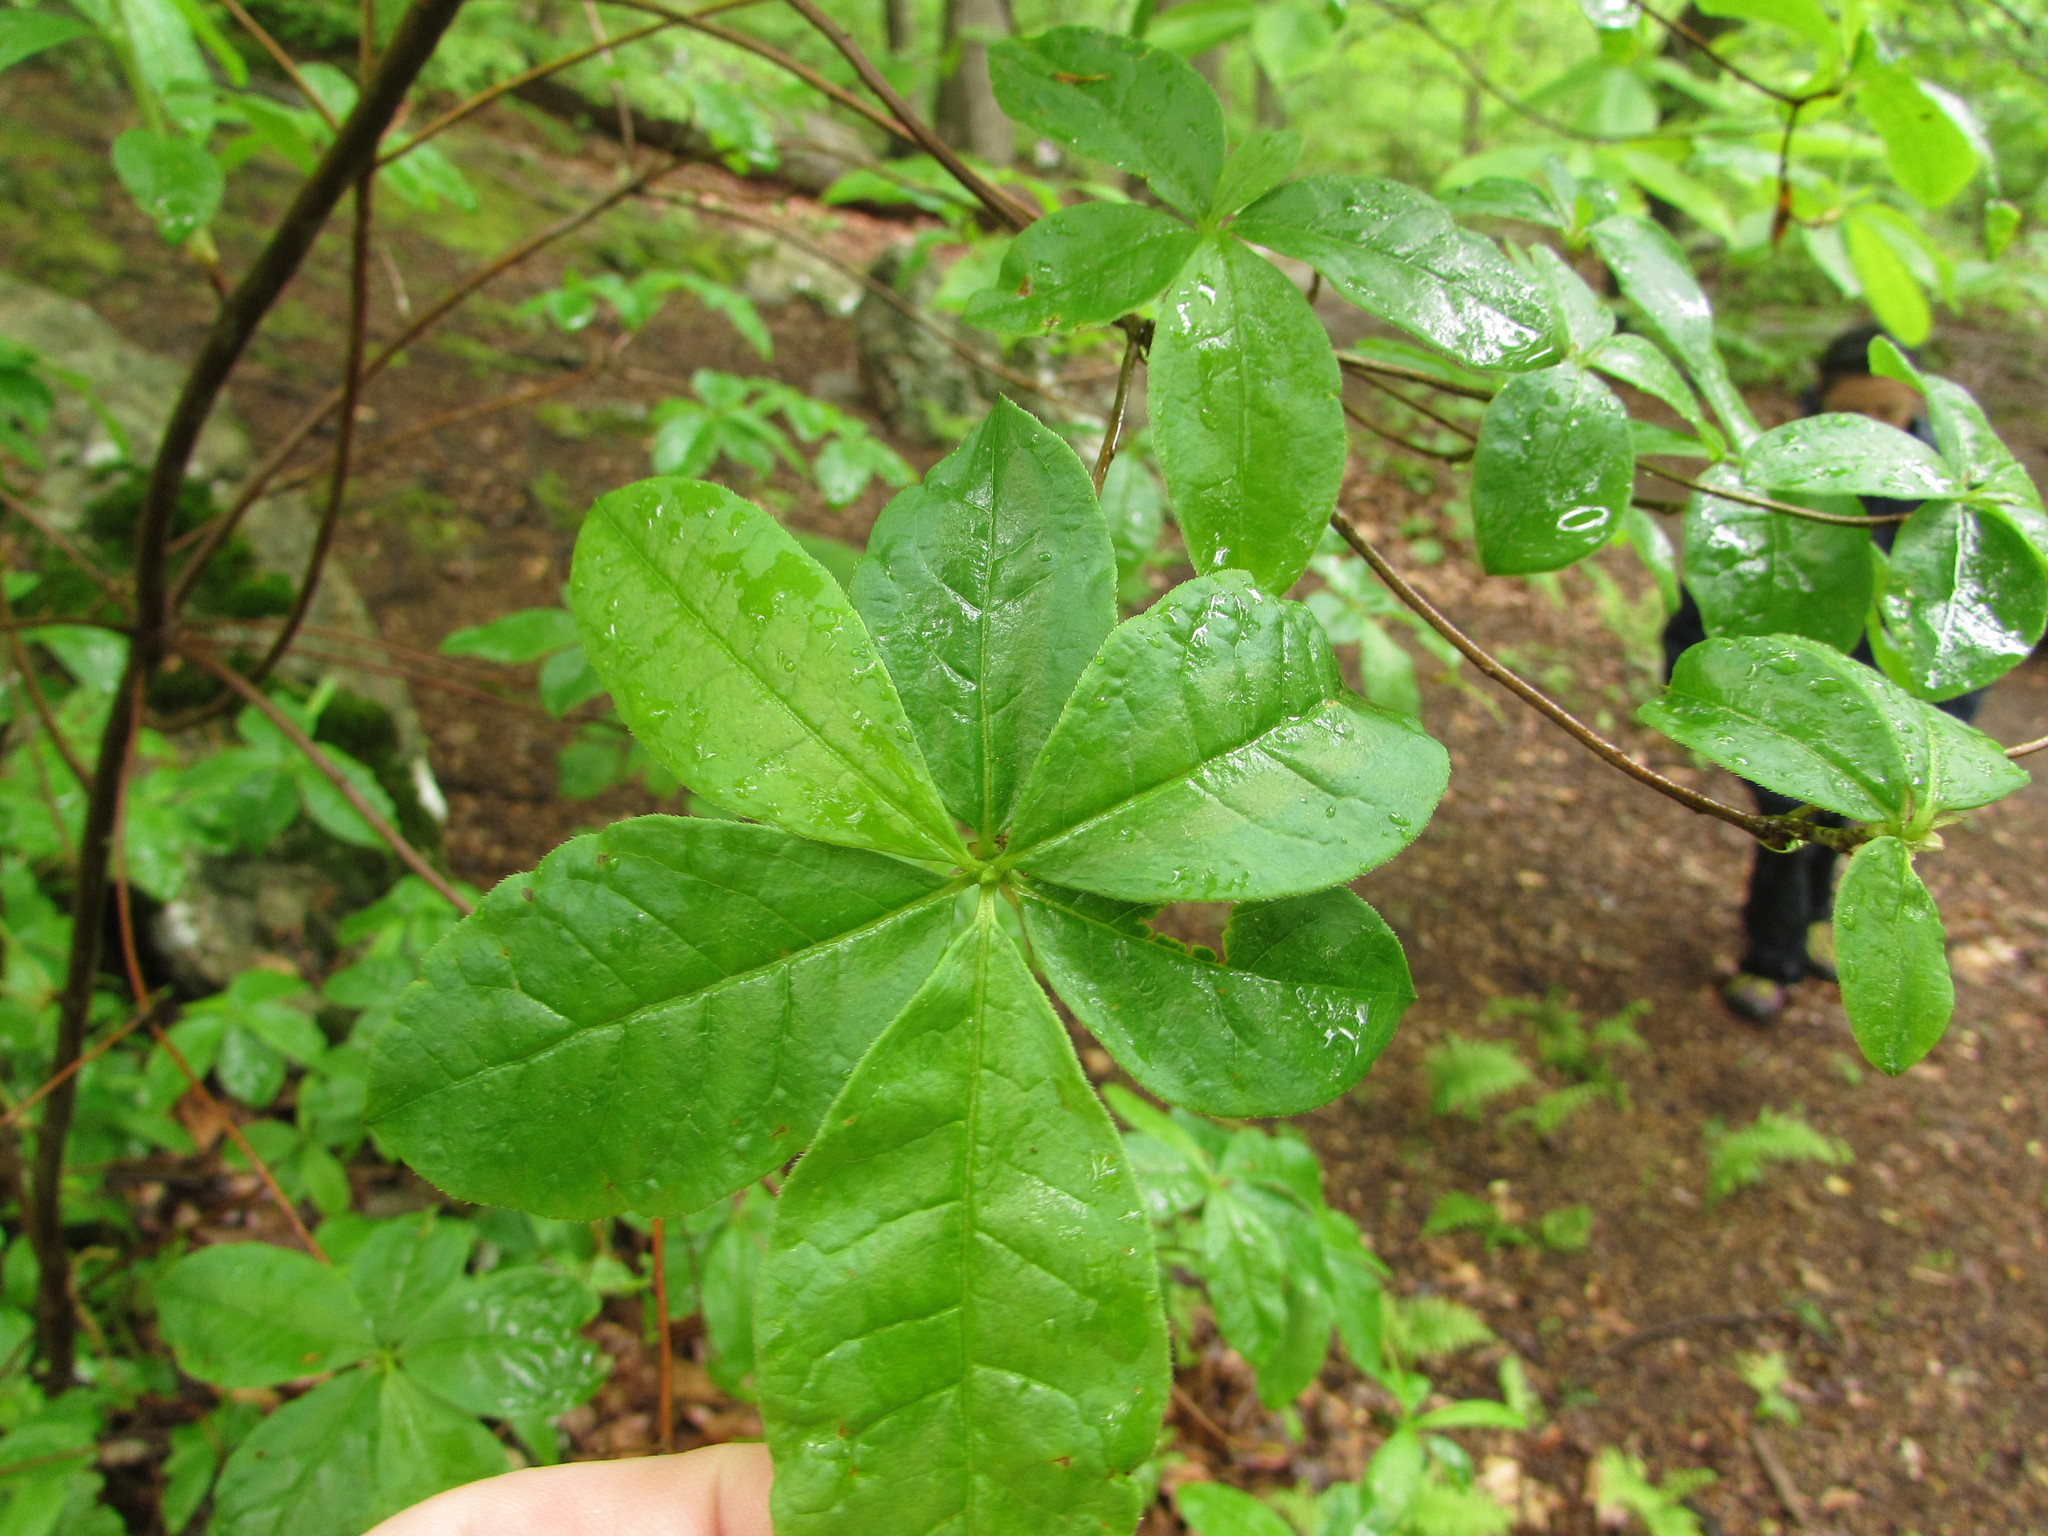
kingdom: Plantae
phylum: Tracheophyta
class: Magnoliopsida
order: Ericales
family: Ericaceae
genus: Rhododendron
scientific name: Rhododendron periclymenoides
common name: Election-pink
